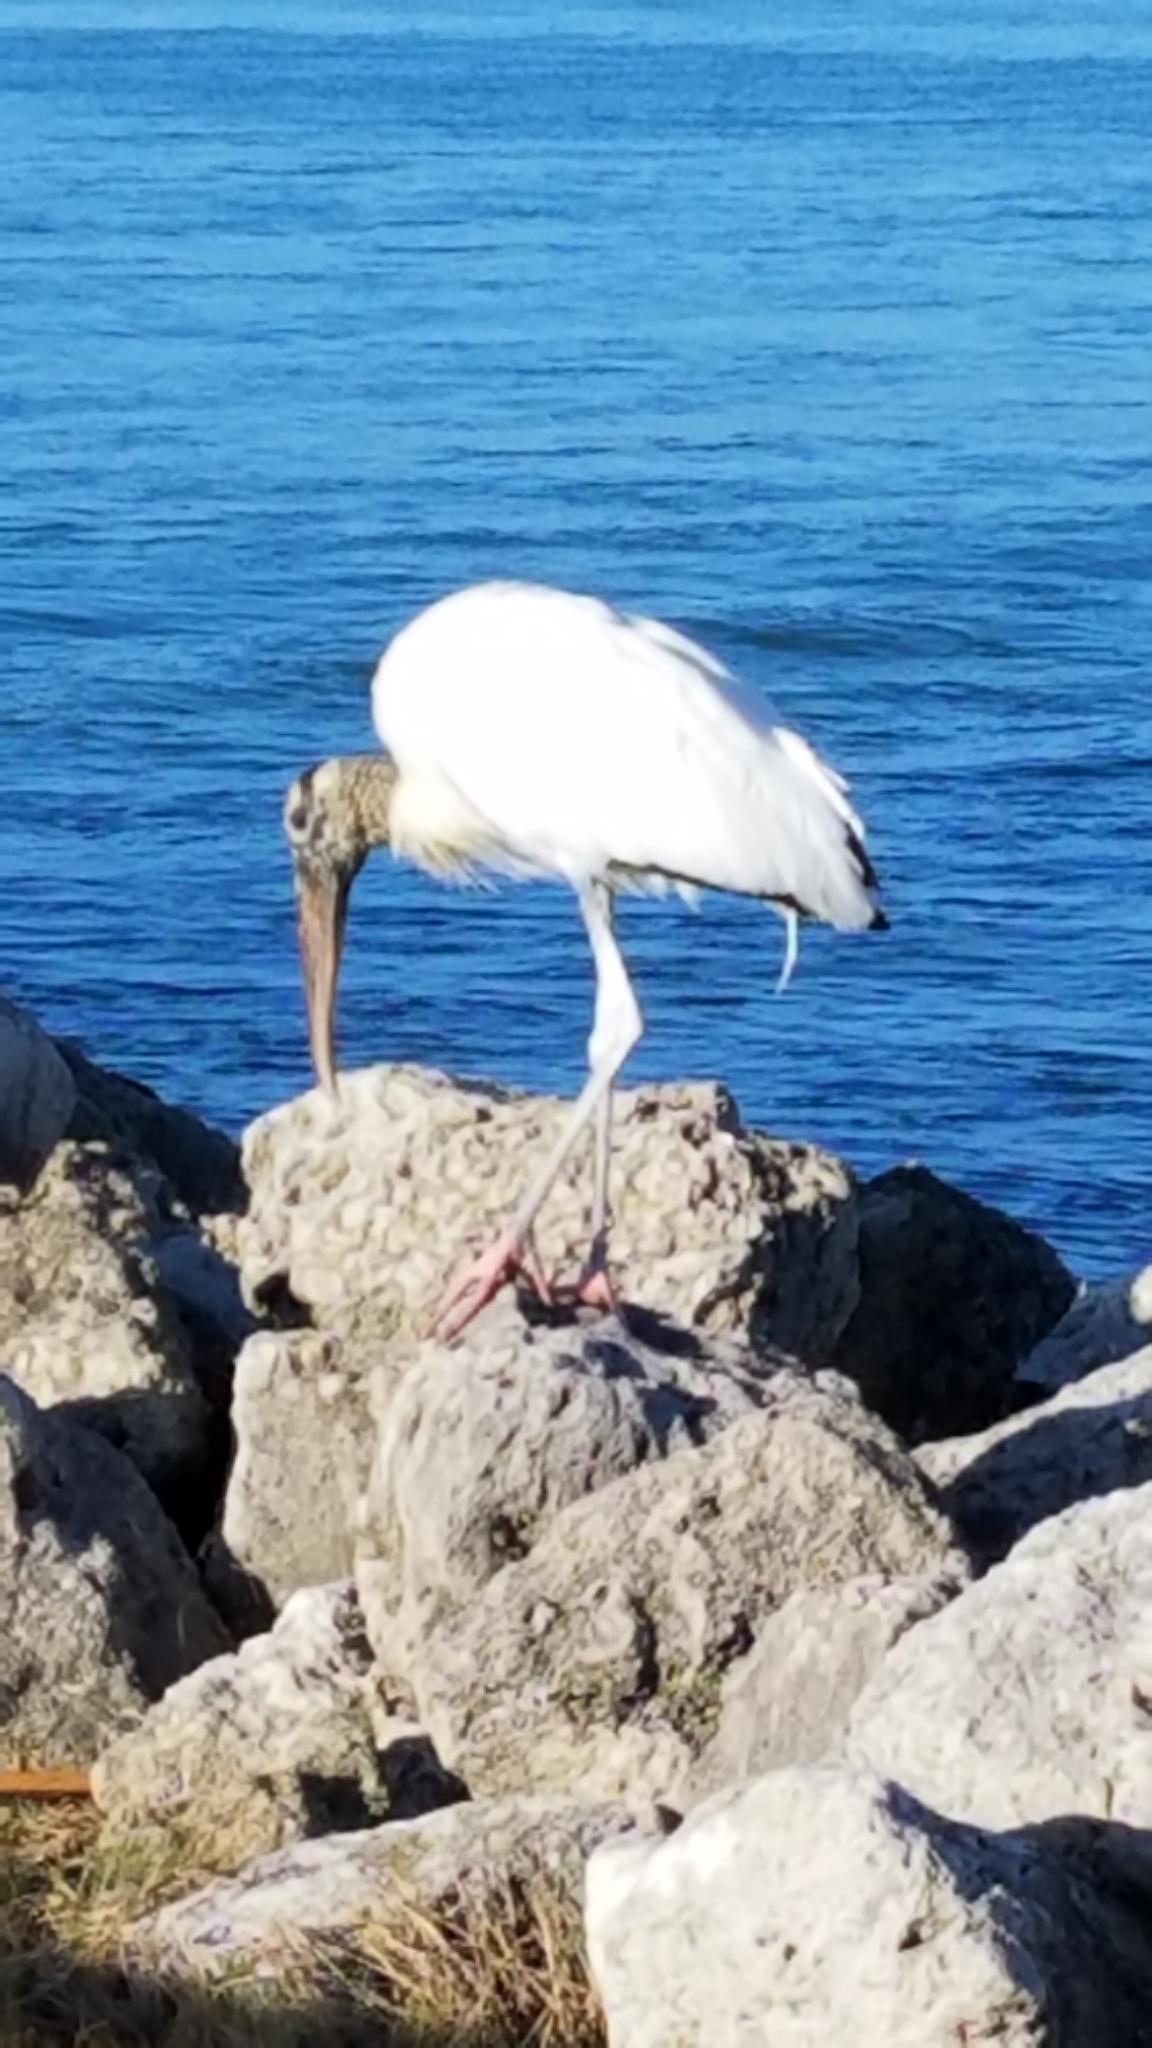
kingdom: Animalia
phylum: Chordata
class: Aves
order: Ciconiiformes
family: Ciconiidae
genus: Mycteria
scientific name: Mycteria americana
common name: Wood stork
